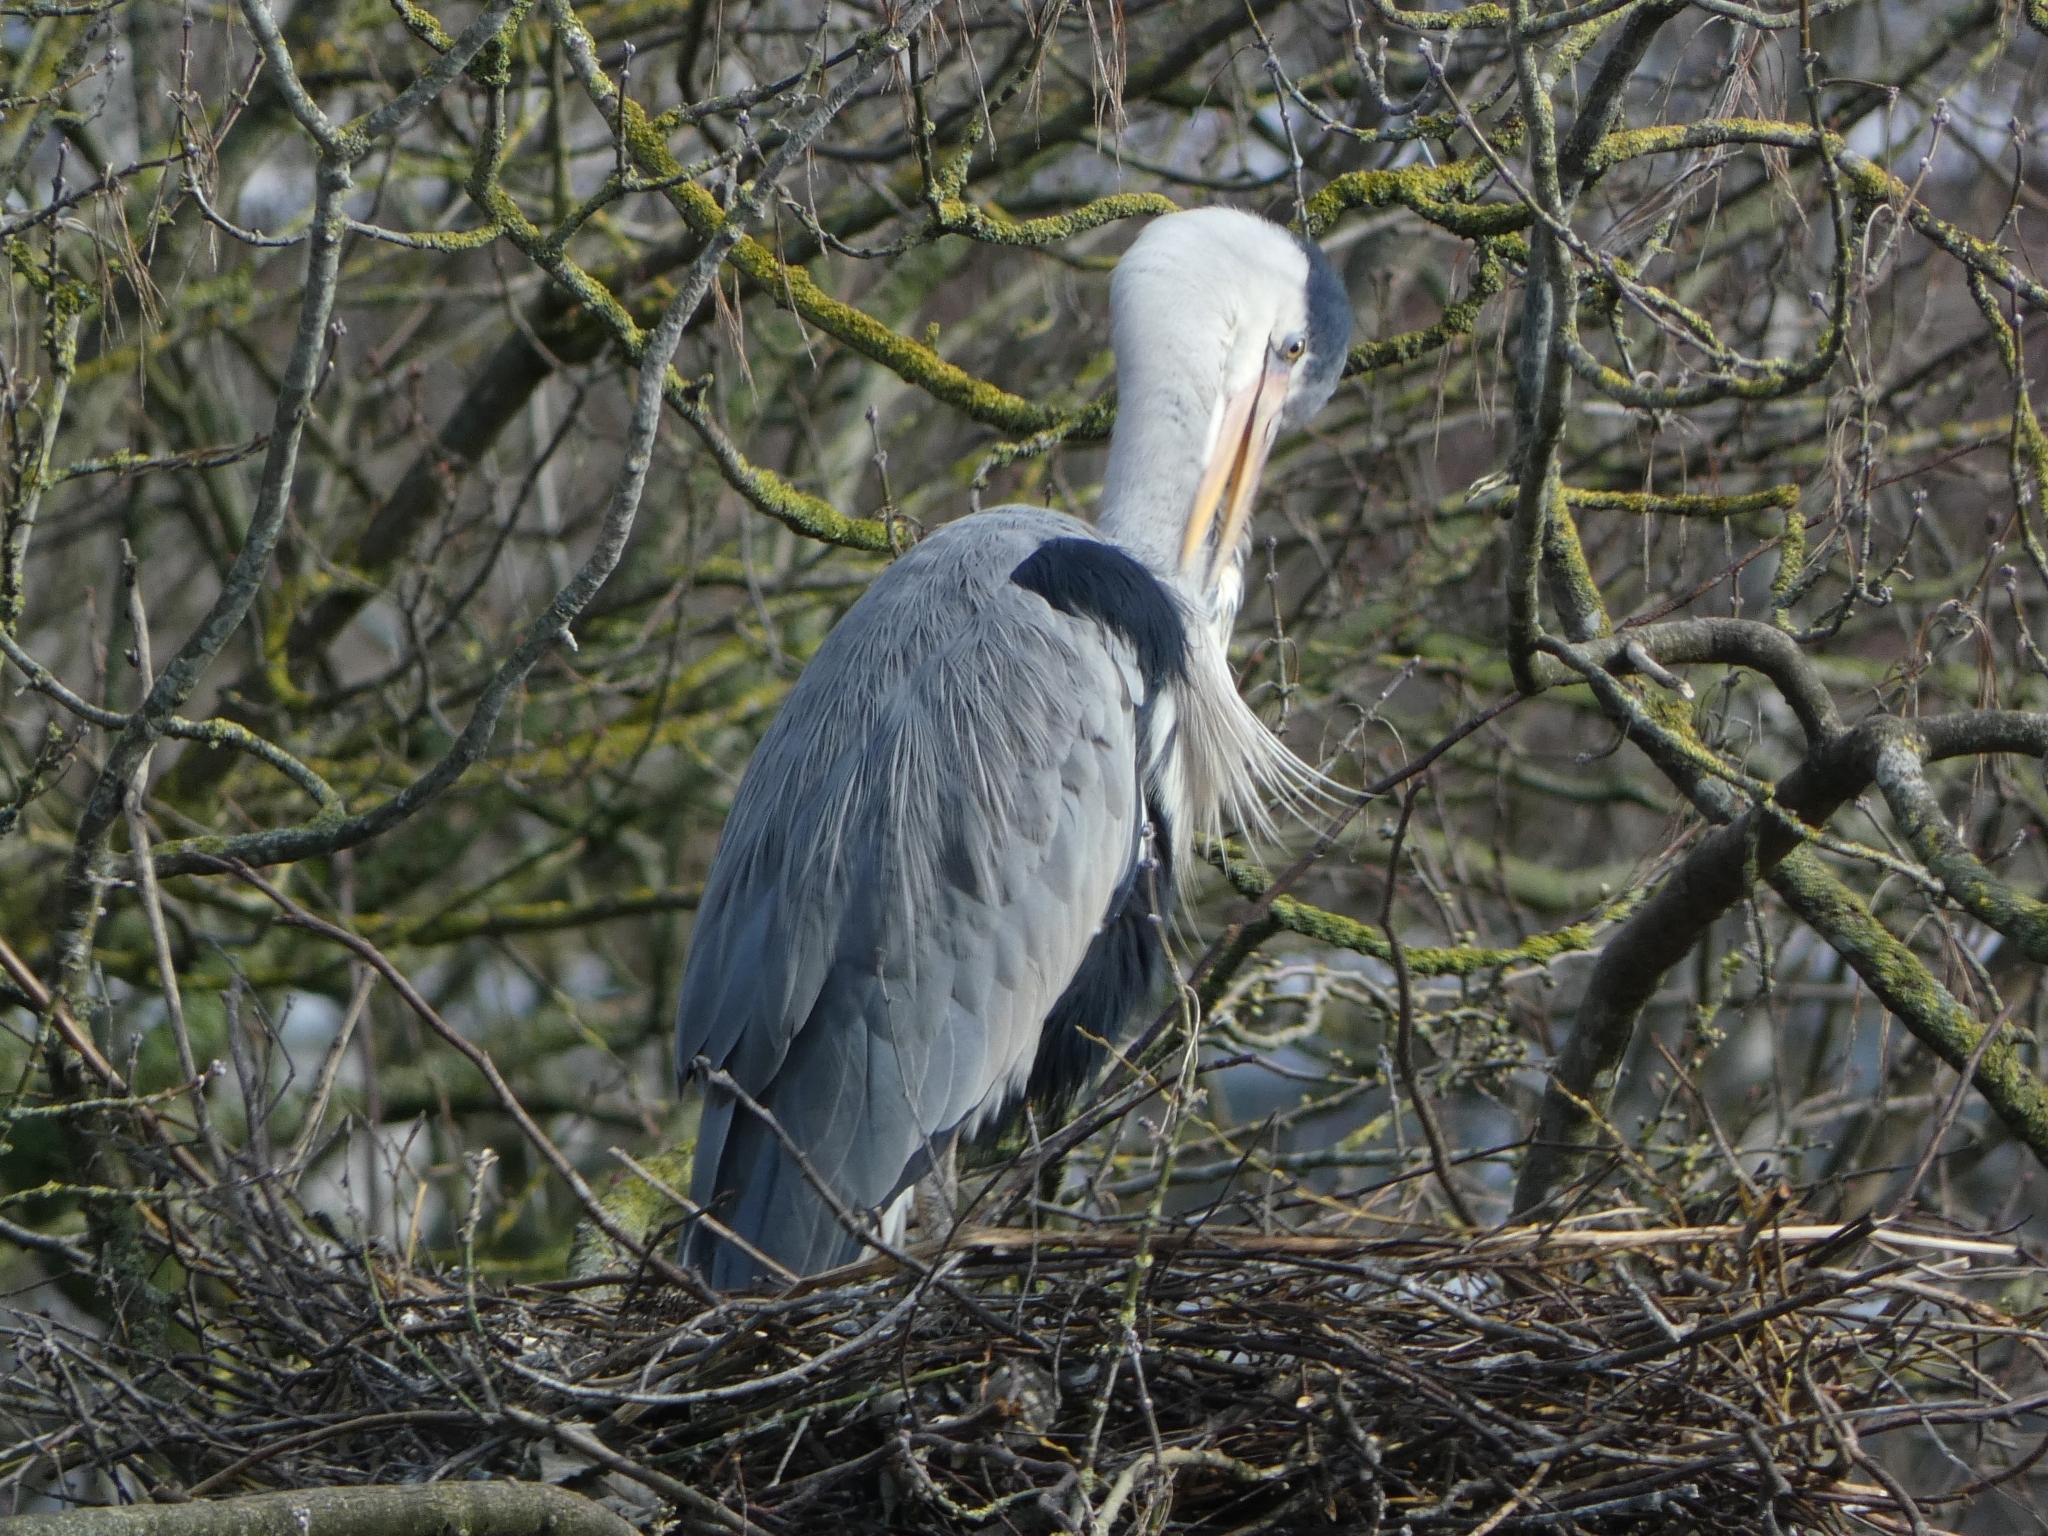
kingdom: Animalia
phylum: Chordata
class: Aves
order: Pelecaniformes
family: Ardeidae
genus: Ardea
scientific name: Ardea cinerea
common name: Grey heron
